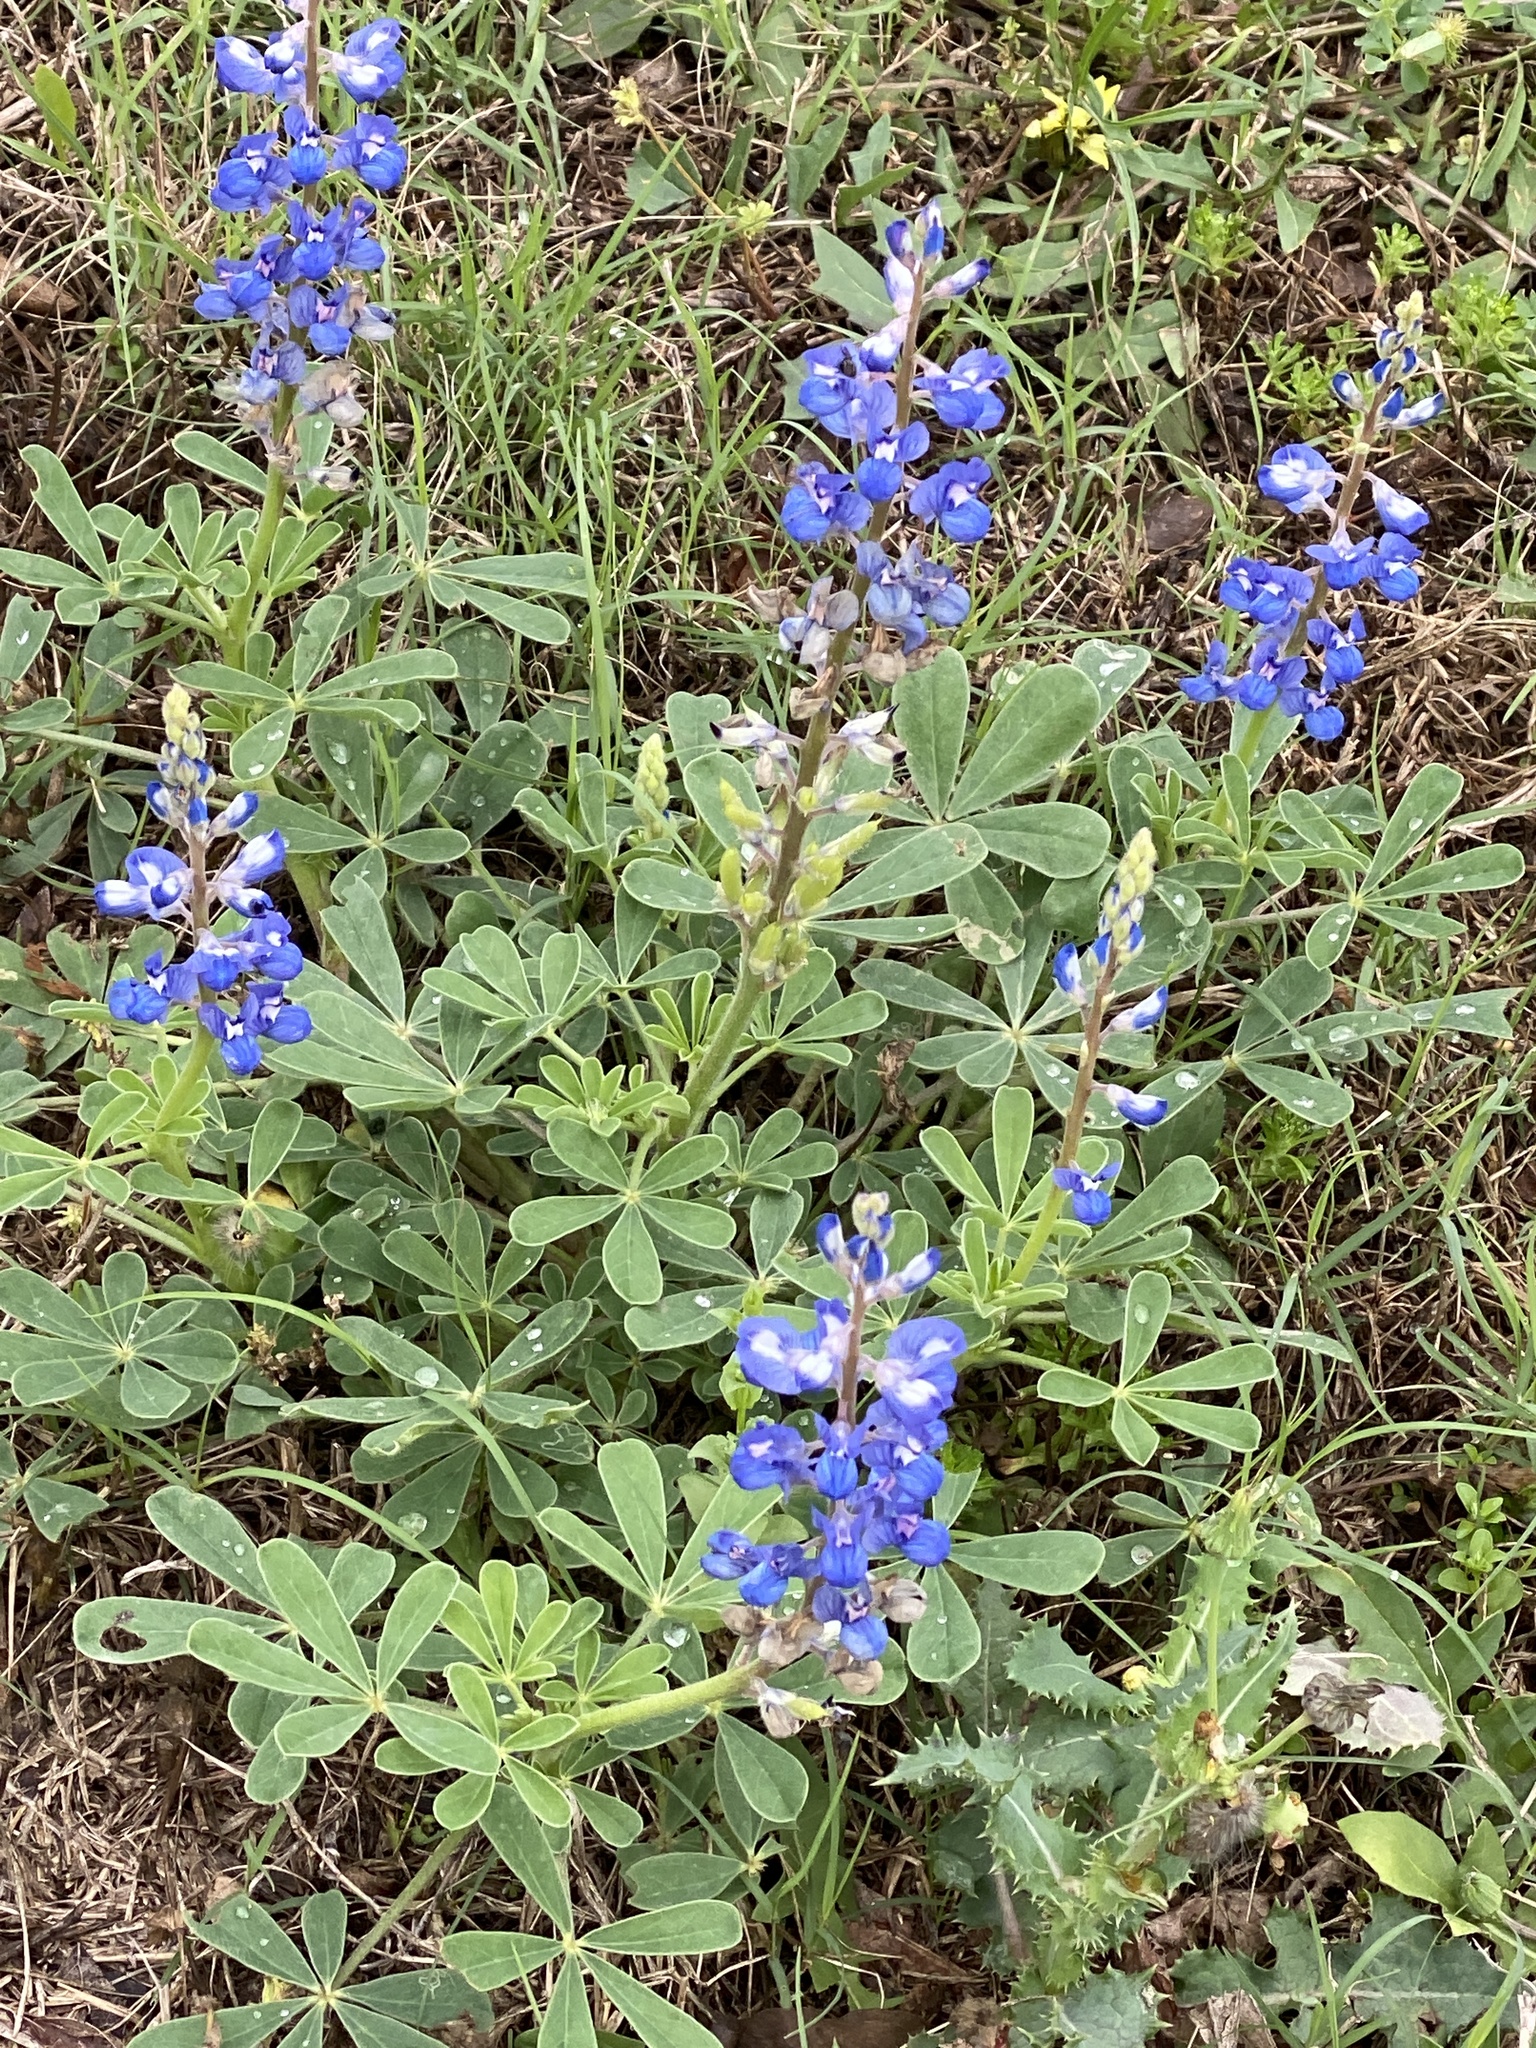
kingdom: Plantae
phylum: Tracheophyta
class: Magnoliopsida
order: Fabales
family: Fabaceae
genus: Lupinus
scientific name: Lupinus subcarnosus
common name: Texas bluebonnet
